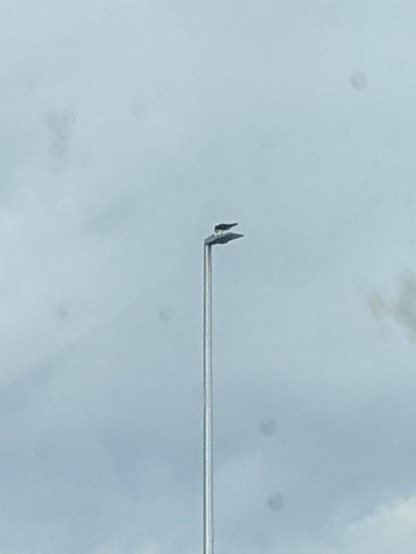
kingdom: Animalia
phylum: Chordata
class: Aves
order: Accipitriformes
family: Pandionidae
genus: Pandion
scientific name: Pandion haliaetus
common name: Osprey
